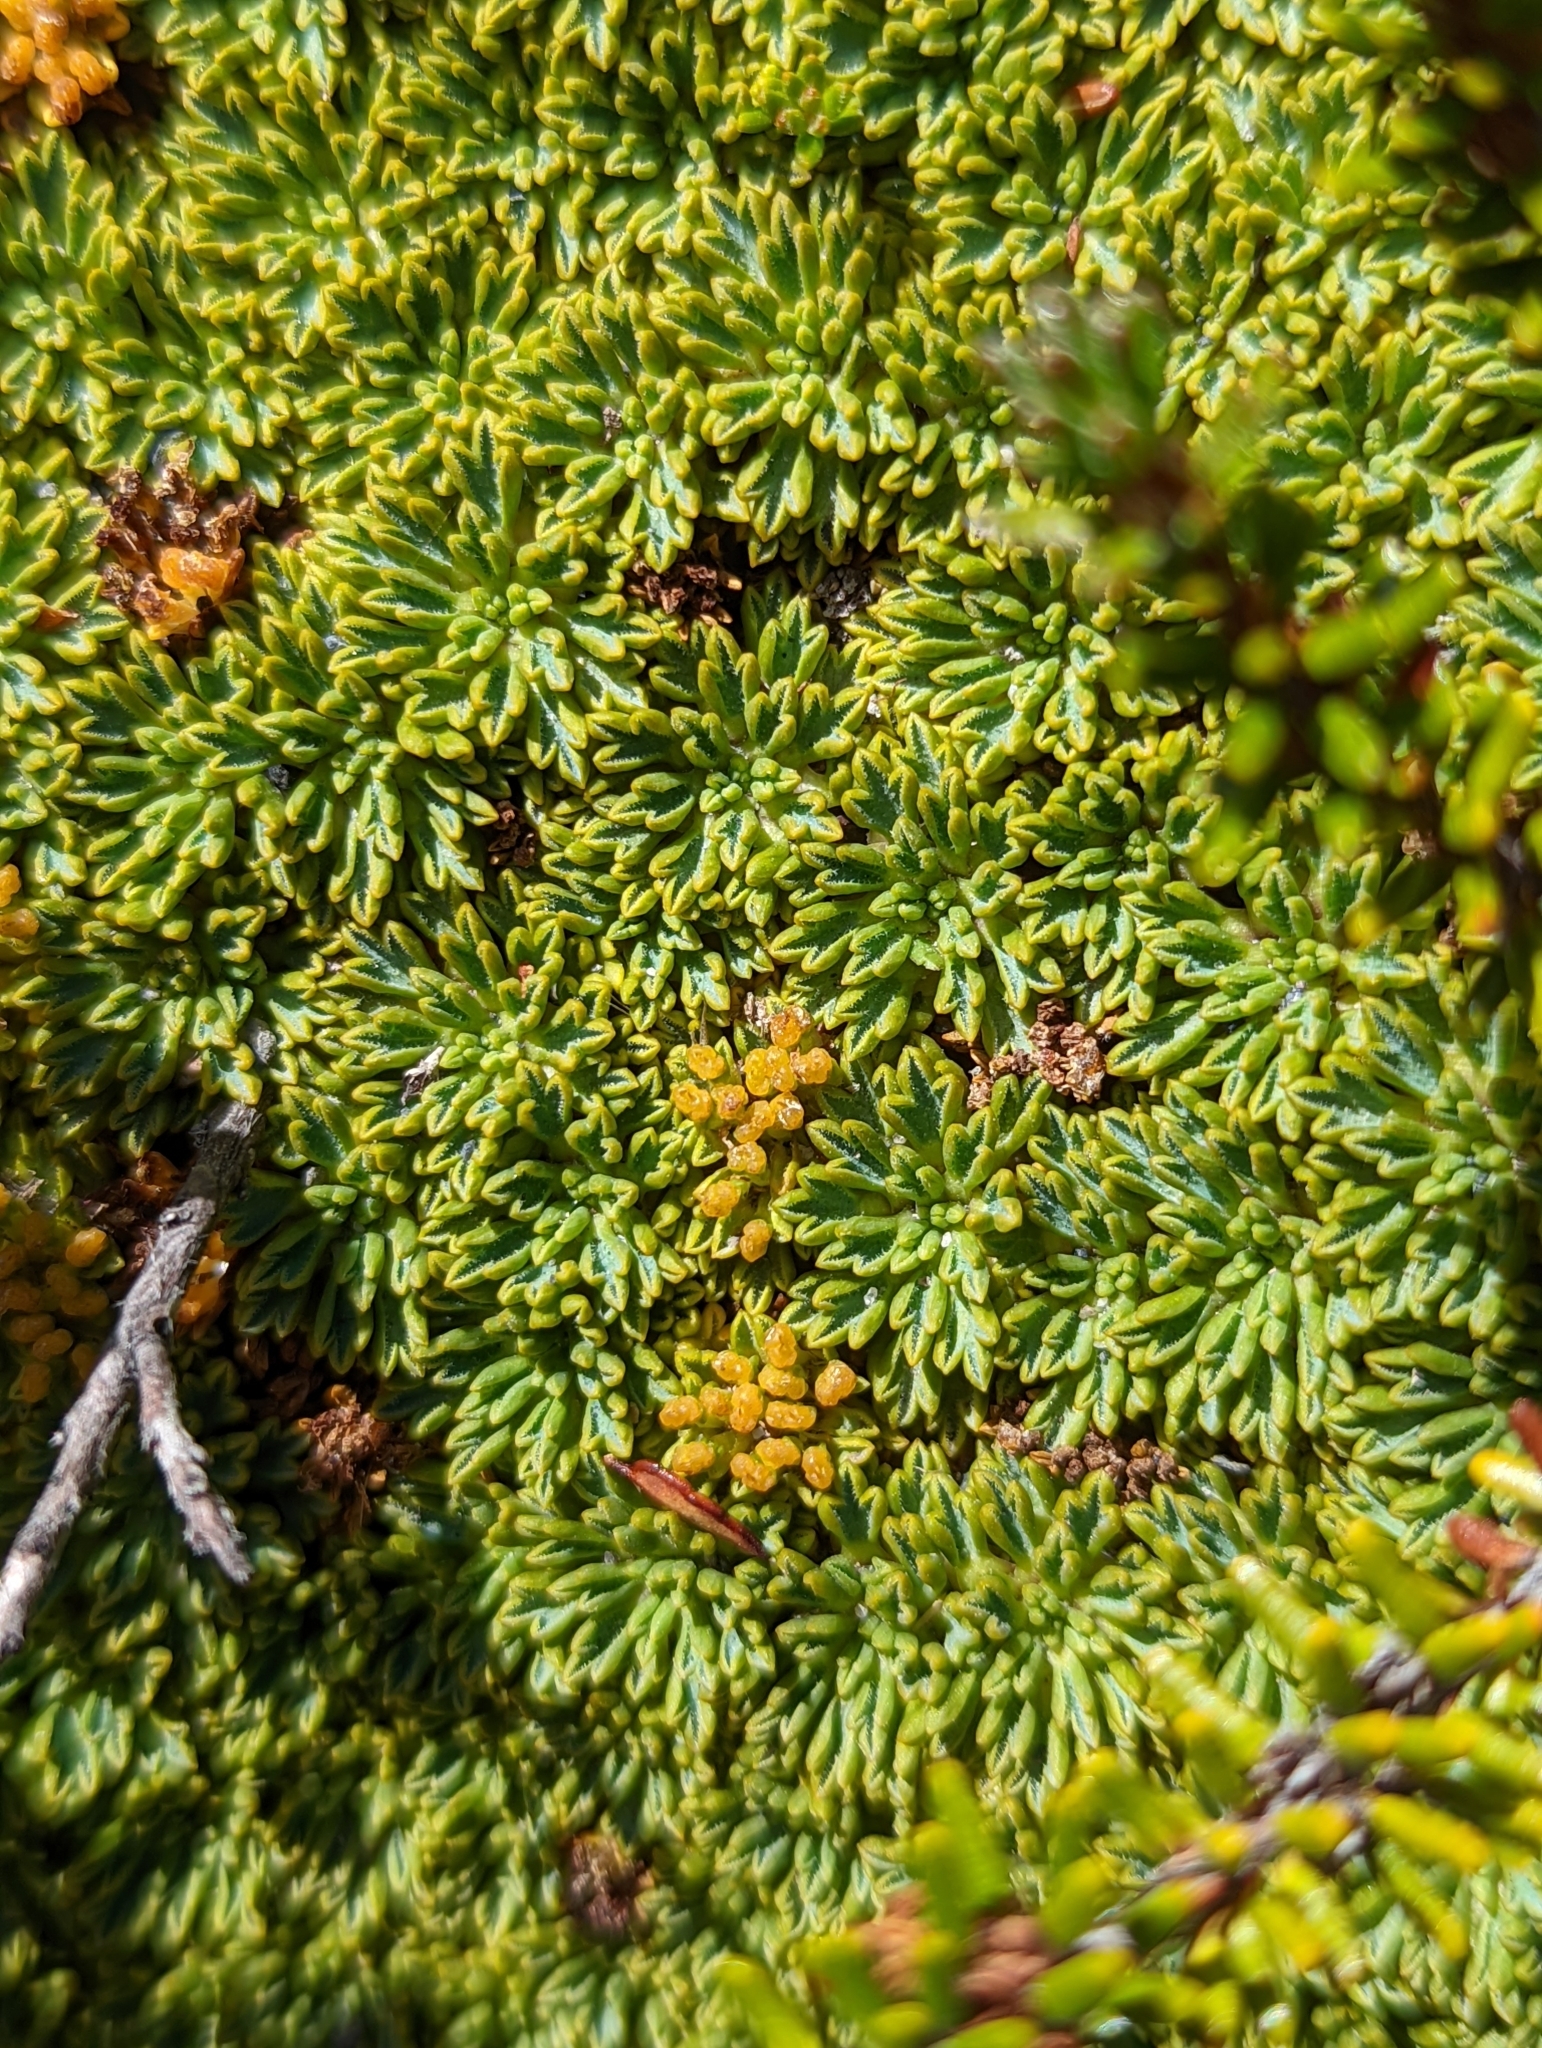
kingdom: Plantae
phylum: Tracheophyta
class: Magnoliopsida
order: Apiales
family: Apiaceae
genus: Bolax
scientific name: Bolax gummifera
